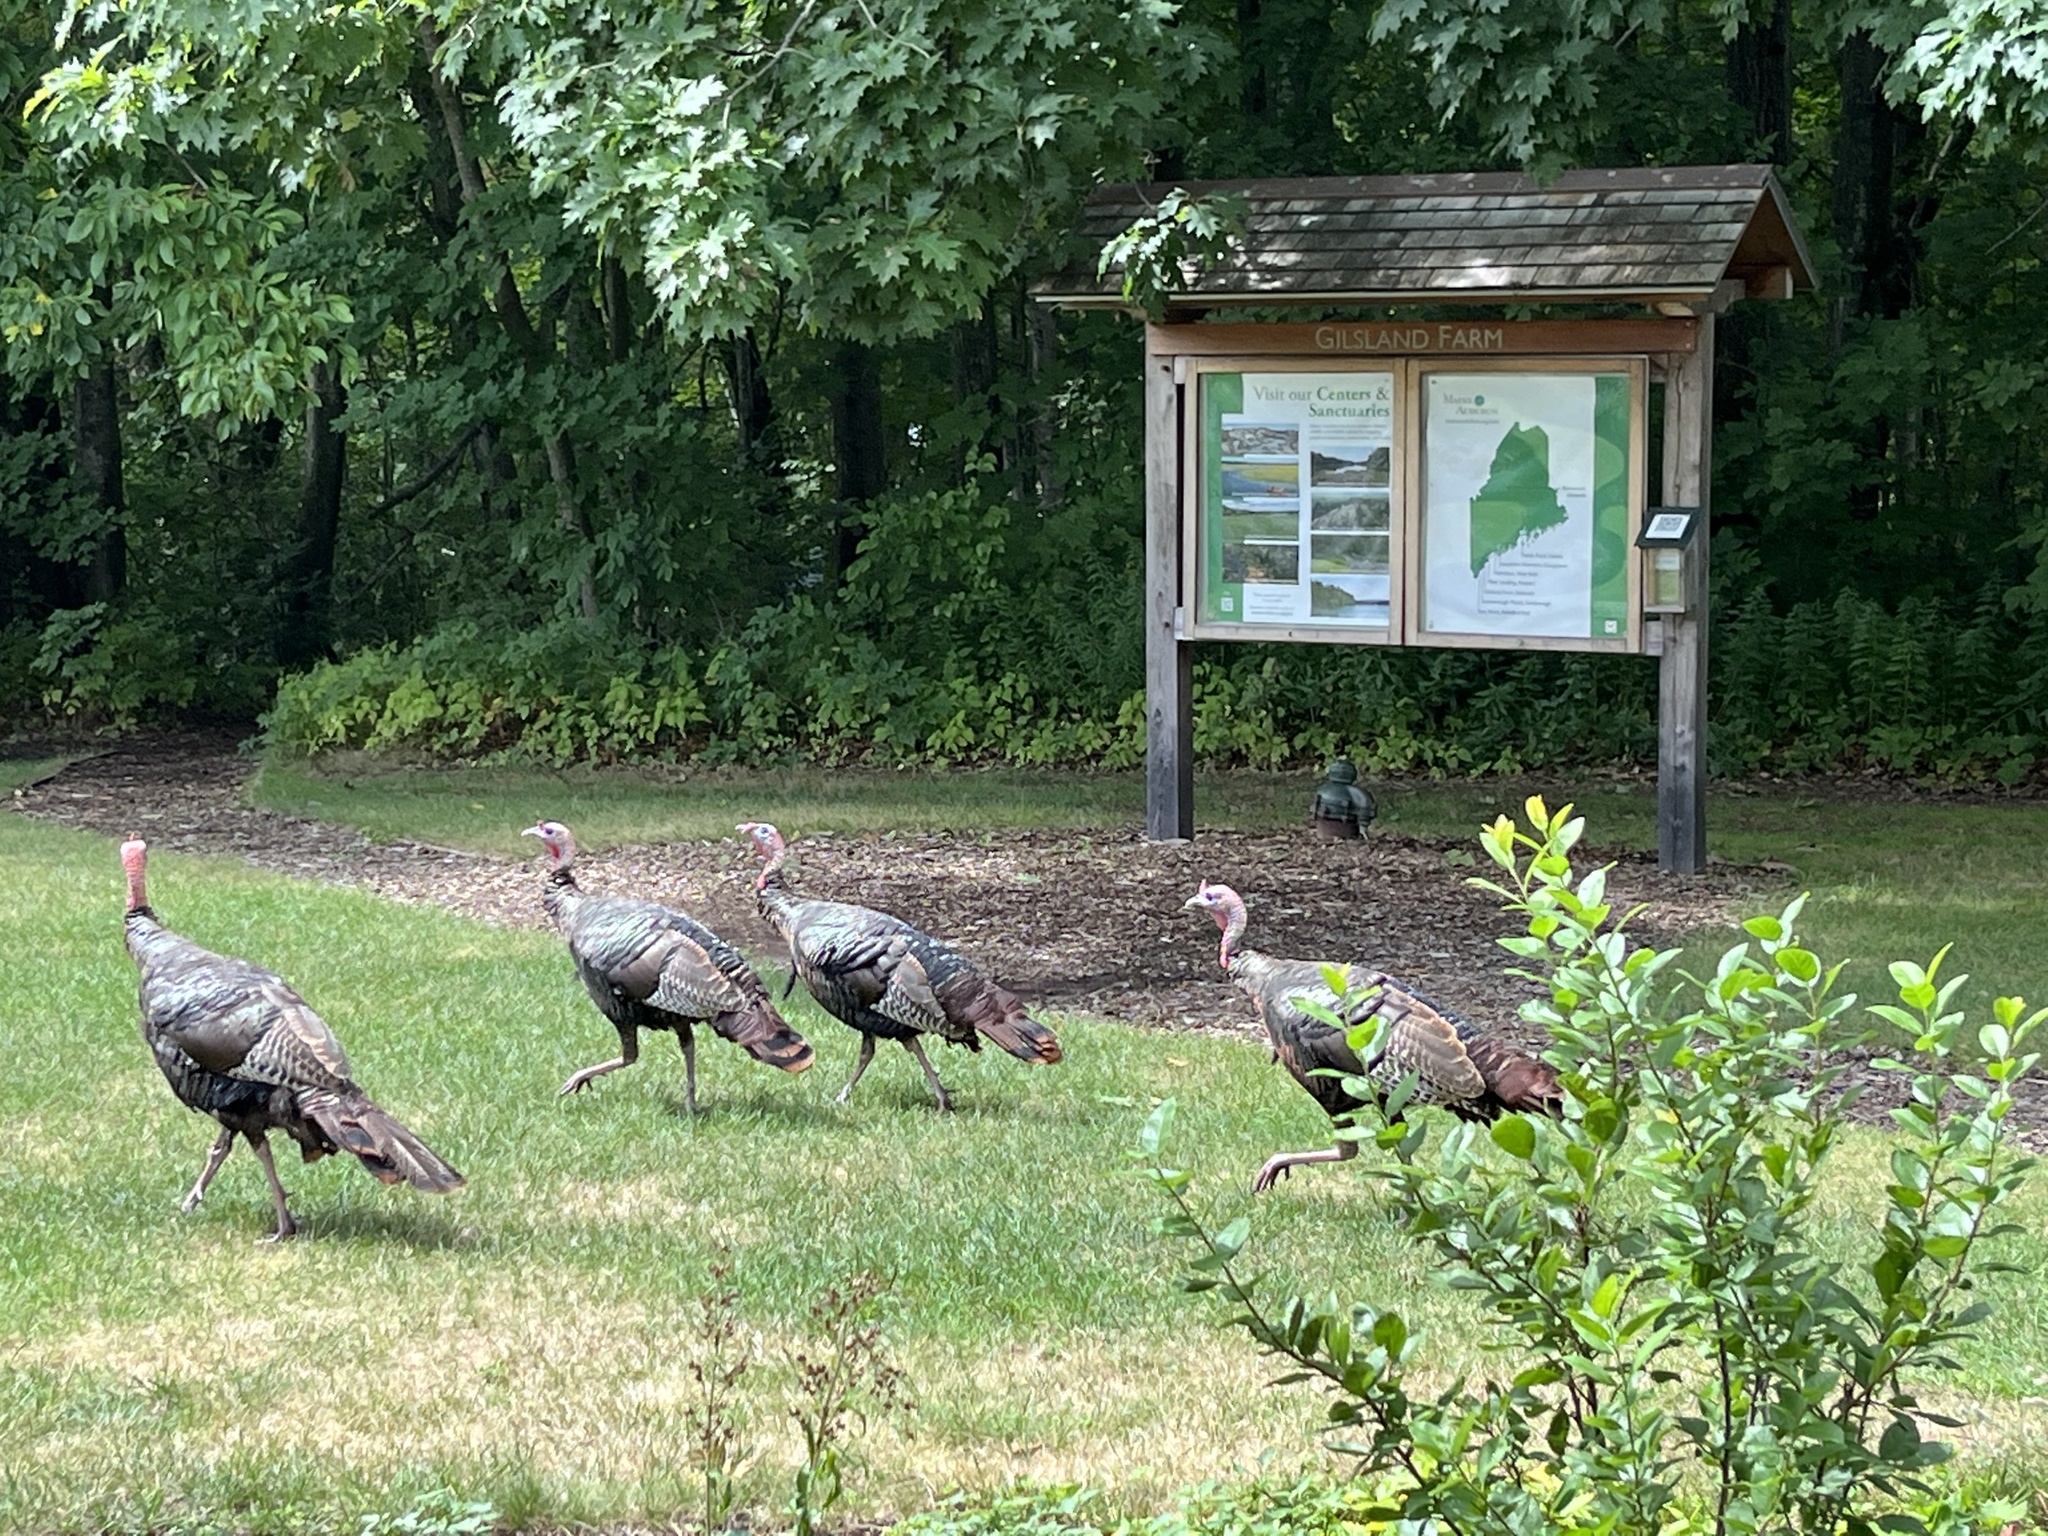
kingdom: Animalia
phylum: Chordata
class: Aves
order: Galliformes
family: Phasianidae
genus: Meleagris
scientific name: Meleagris gallopavo
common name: Wild turkey
